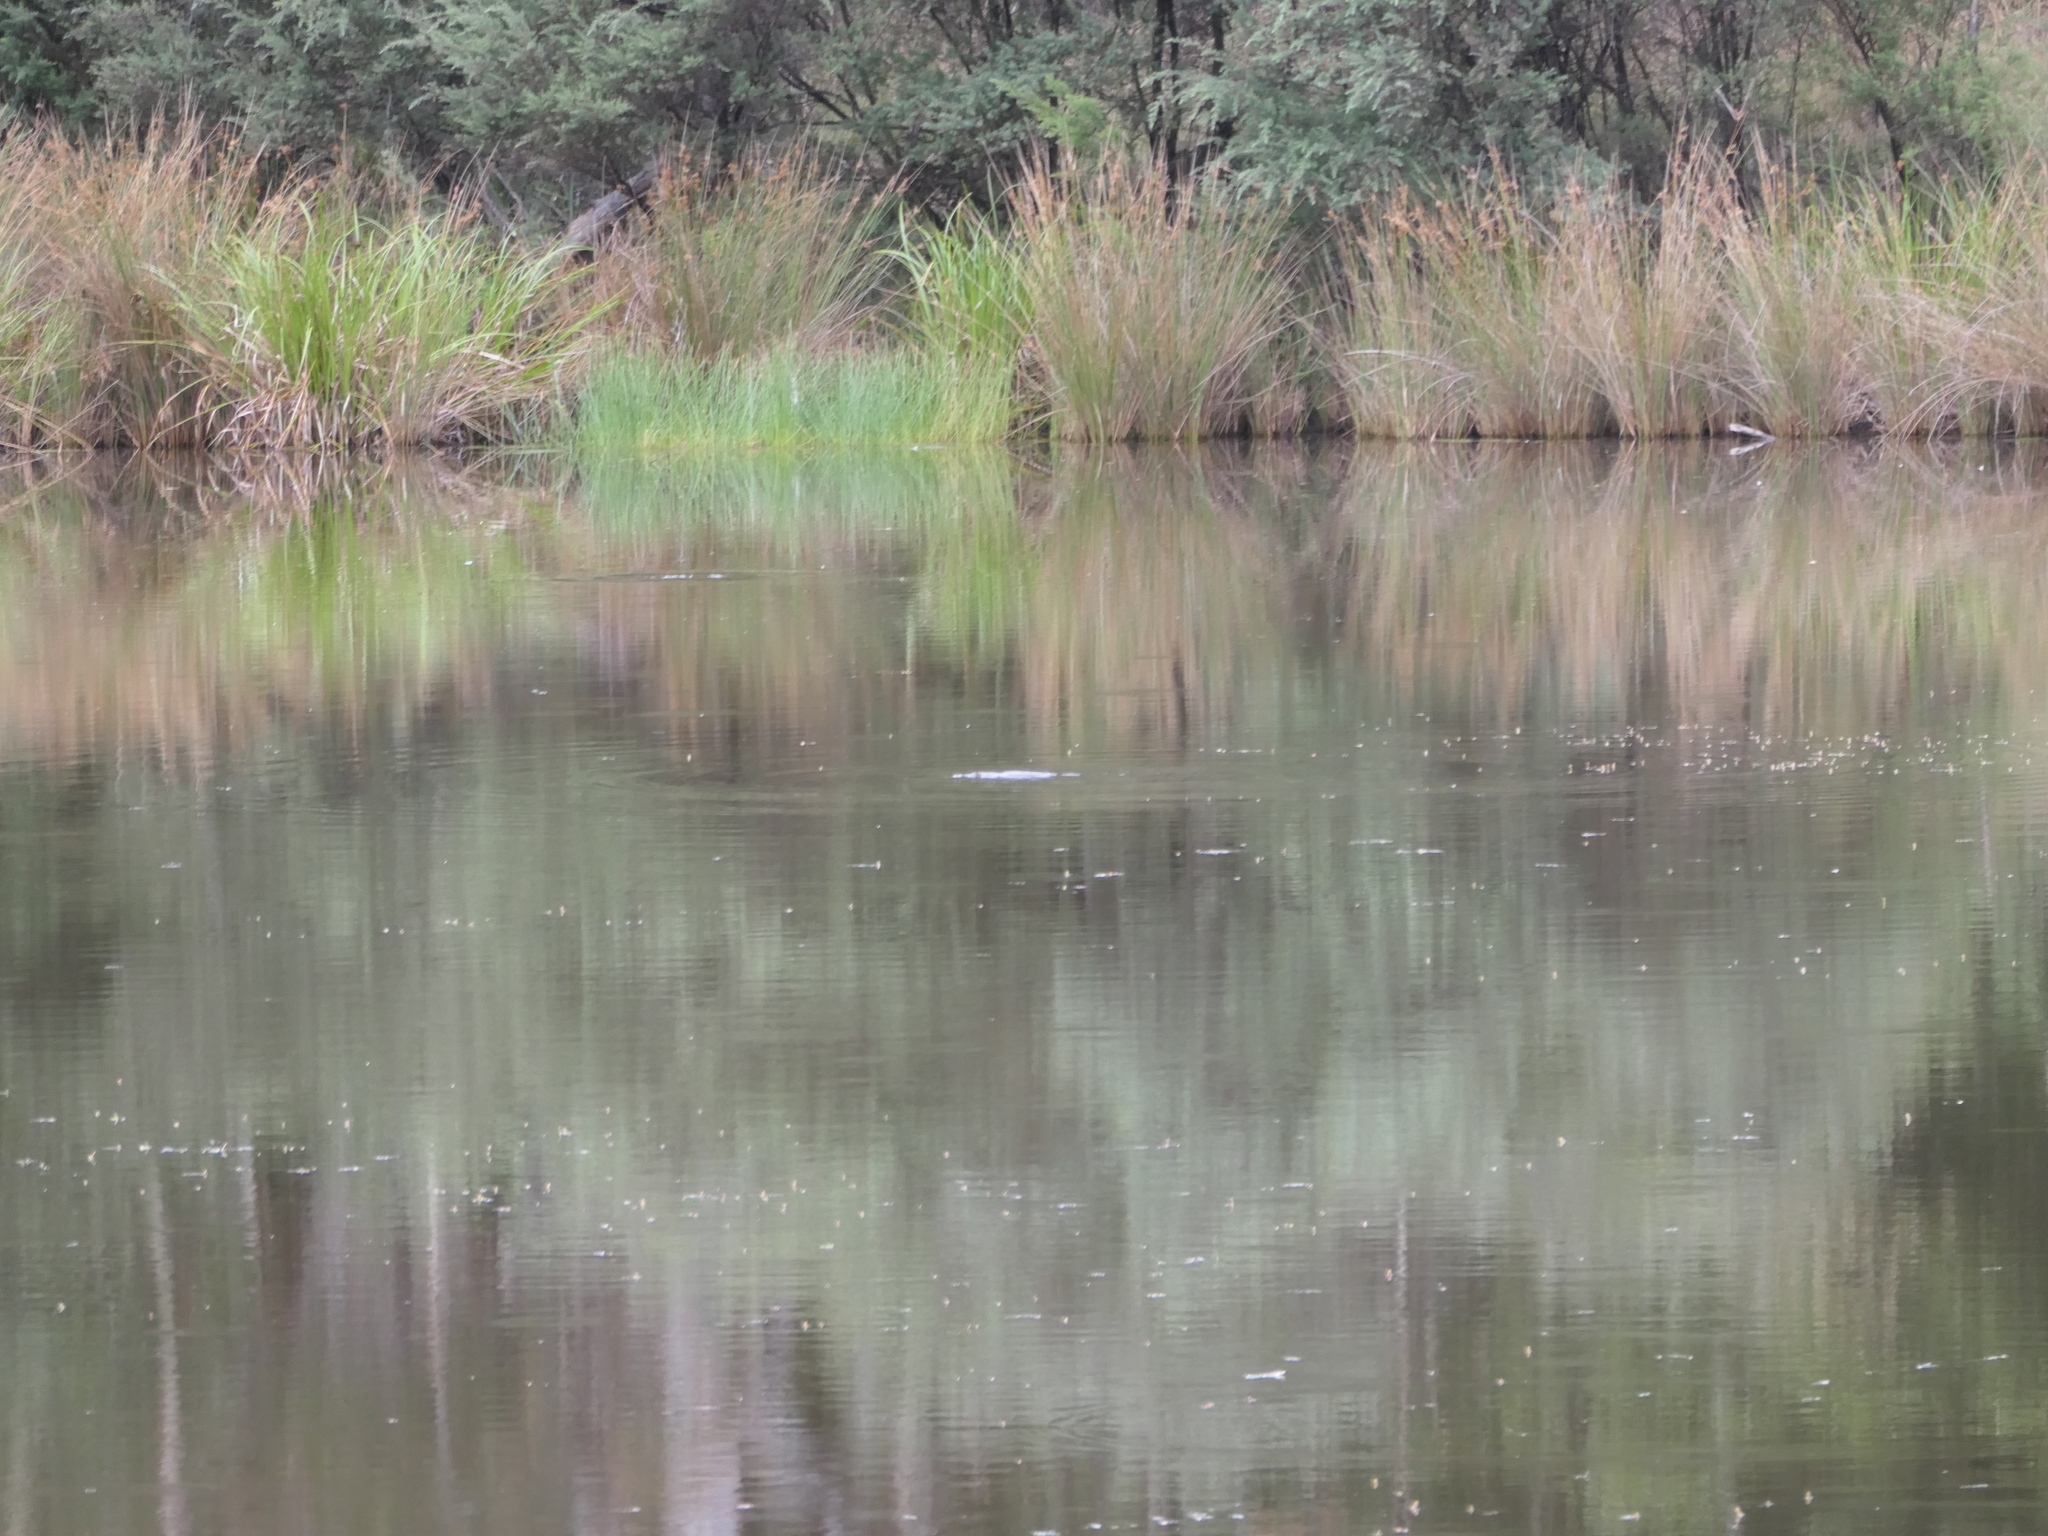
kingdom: Animalia
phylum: Chordata
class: Mammalia
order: Monotremata
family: Ornithorhynchidae
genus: Ornithorhynchus
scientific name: Ornithorhynchus anatinus
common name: Platypus
